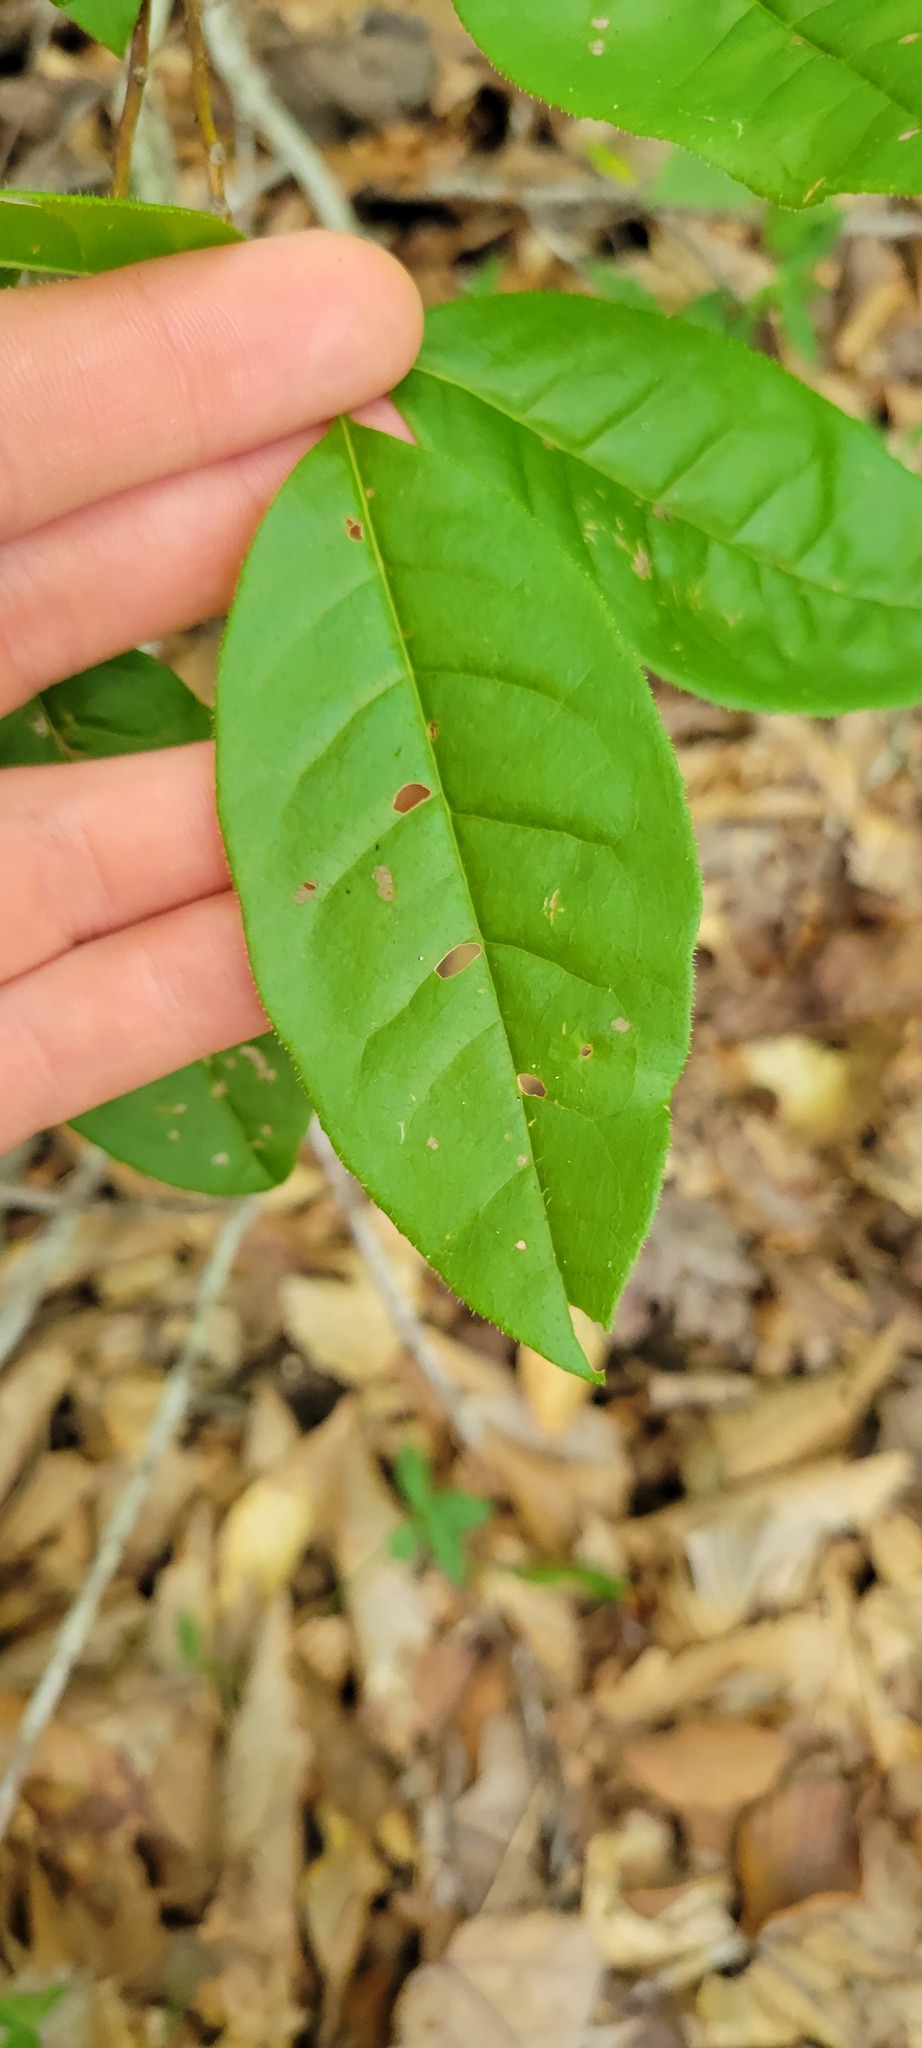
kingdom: Plantae
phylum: Tracheophyta
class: Magnoliopsida
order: Ericales
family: Ericaceae
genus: Oxydendrum
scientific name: Oxydendrum arboreum
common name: Sourwood
